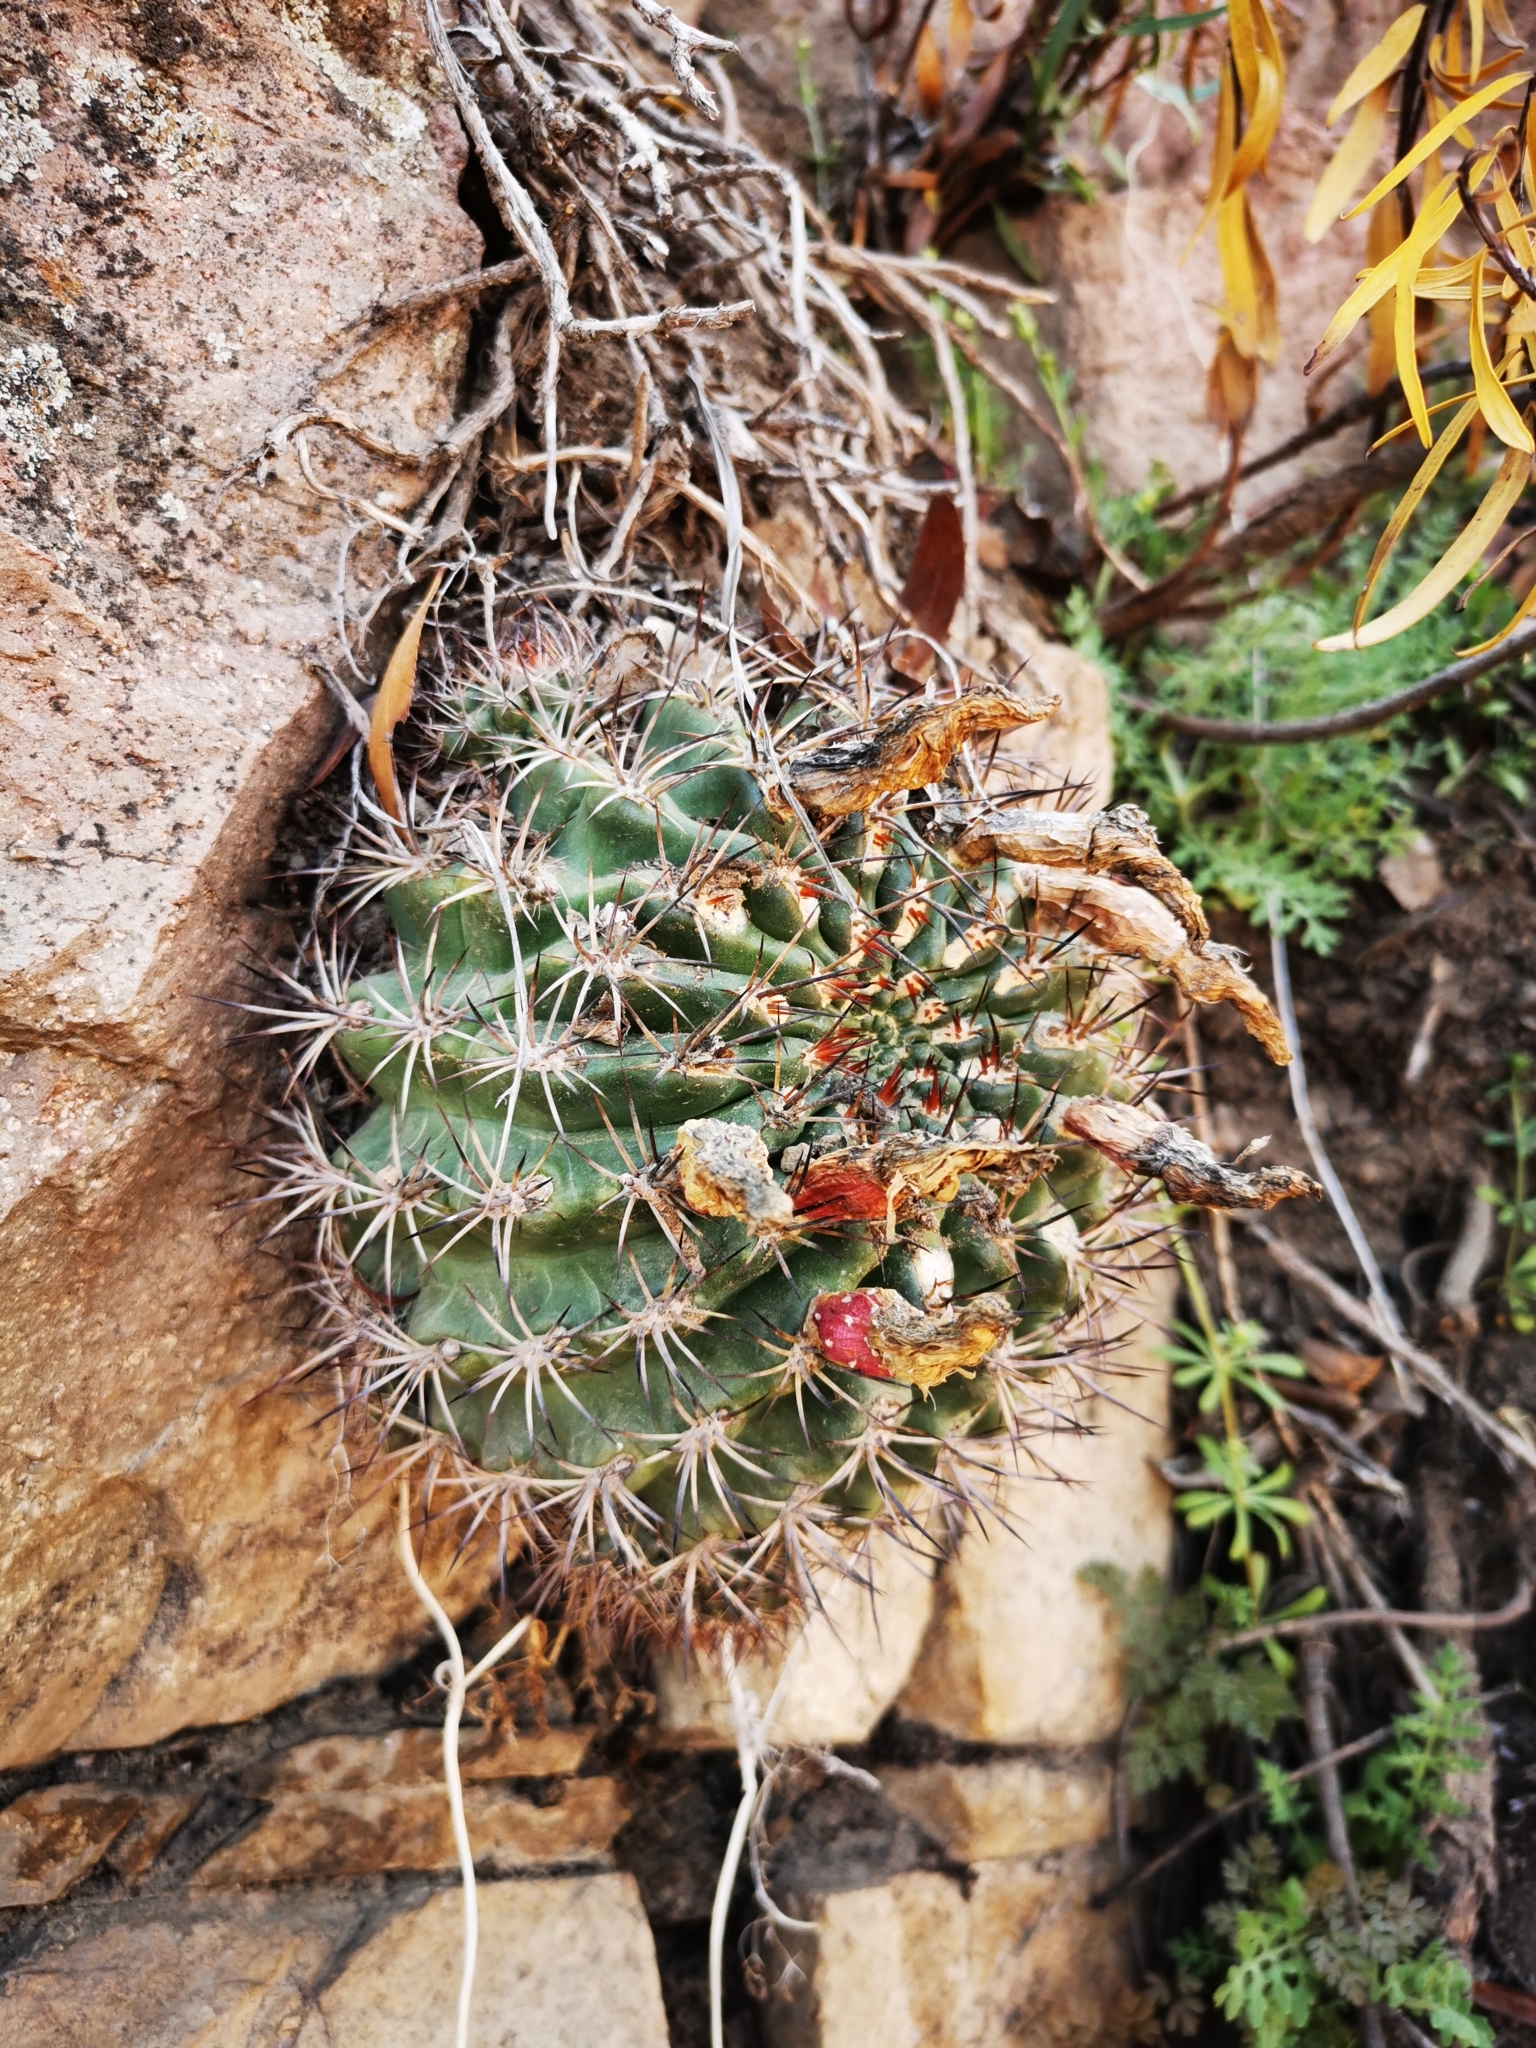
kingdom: Plantae
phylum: Tracheophyta
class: Magnoliopsida
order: Caryophyllales
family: Cactaceae
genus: Eriosyce
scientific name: Eriosyce curvispina
